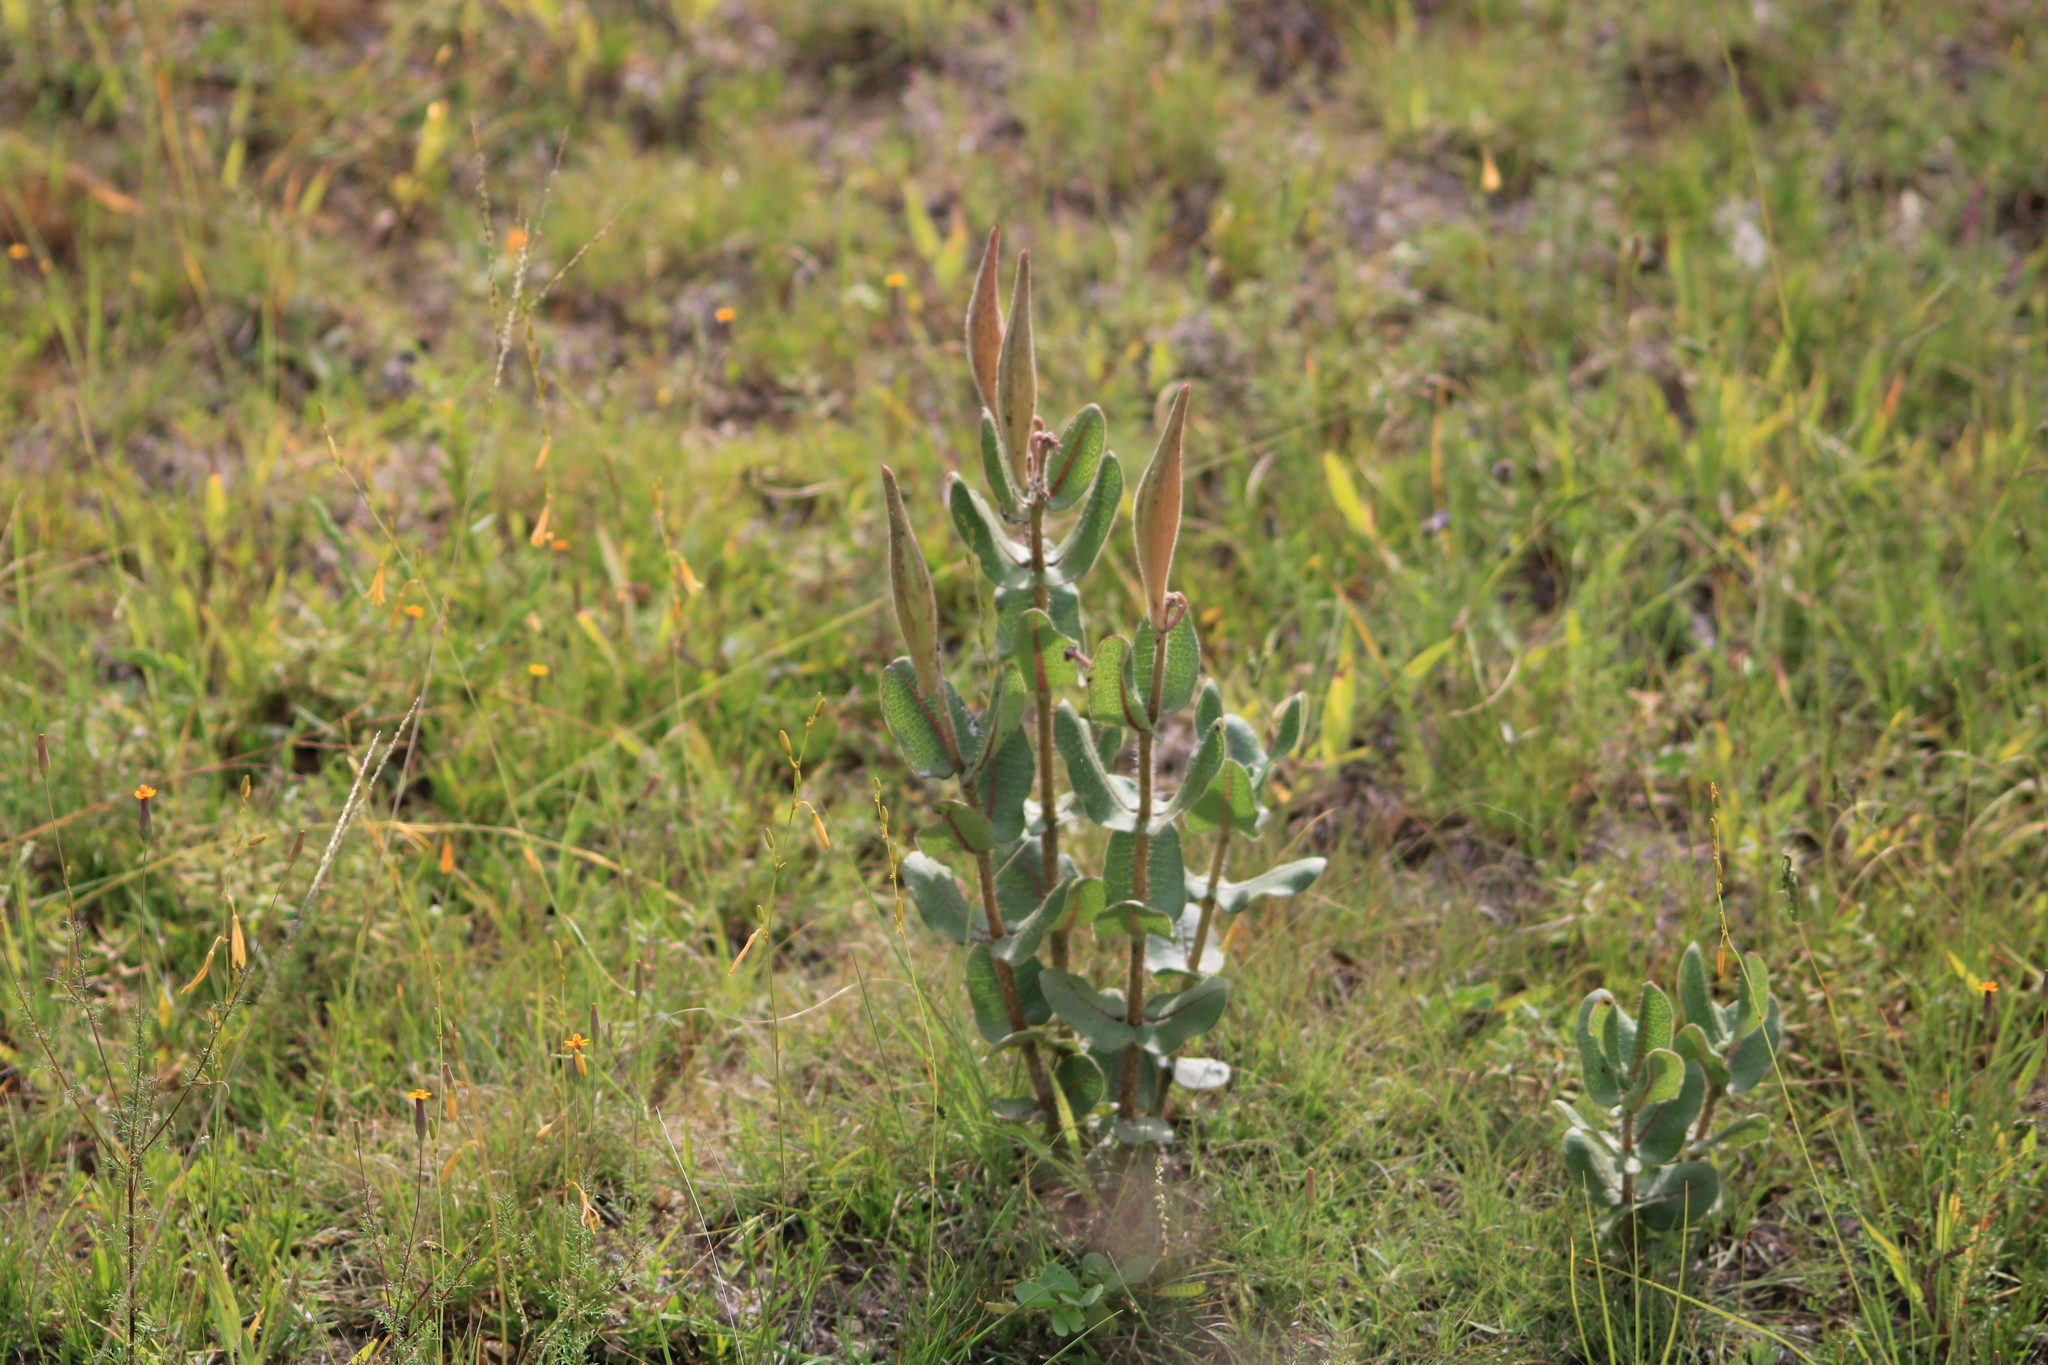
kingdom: Plantae
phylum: Tracheophyta
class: Magnoliopsida
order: Gentianales
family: Apocynaceae
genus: Asclepias
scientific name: Asclepias jaliscana
